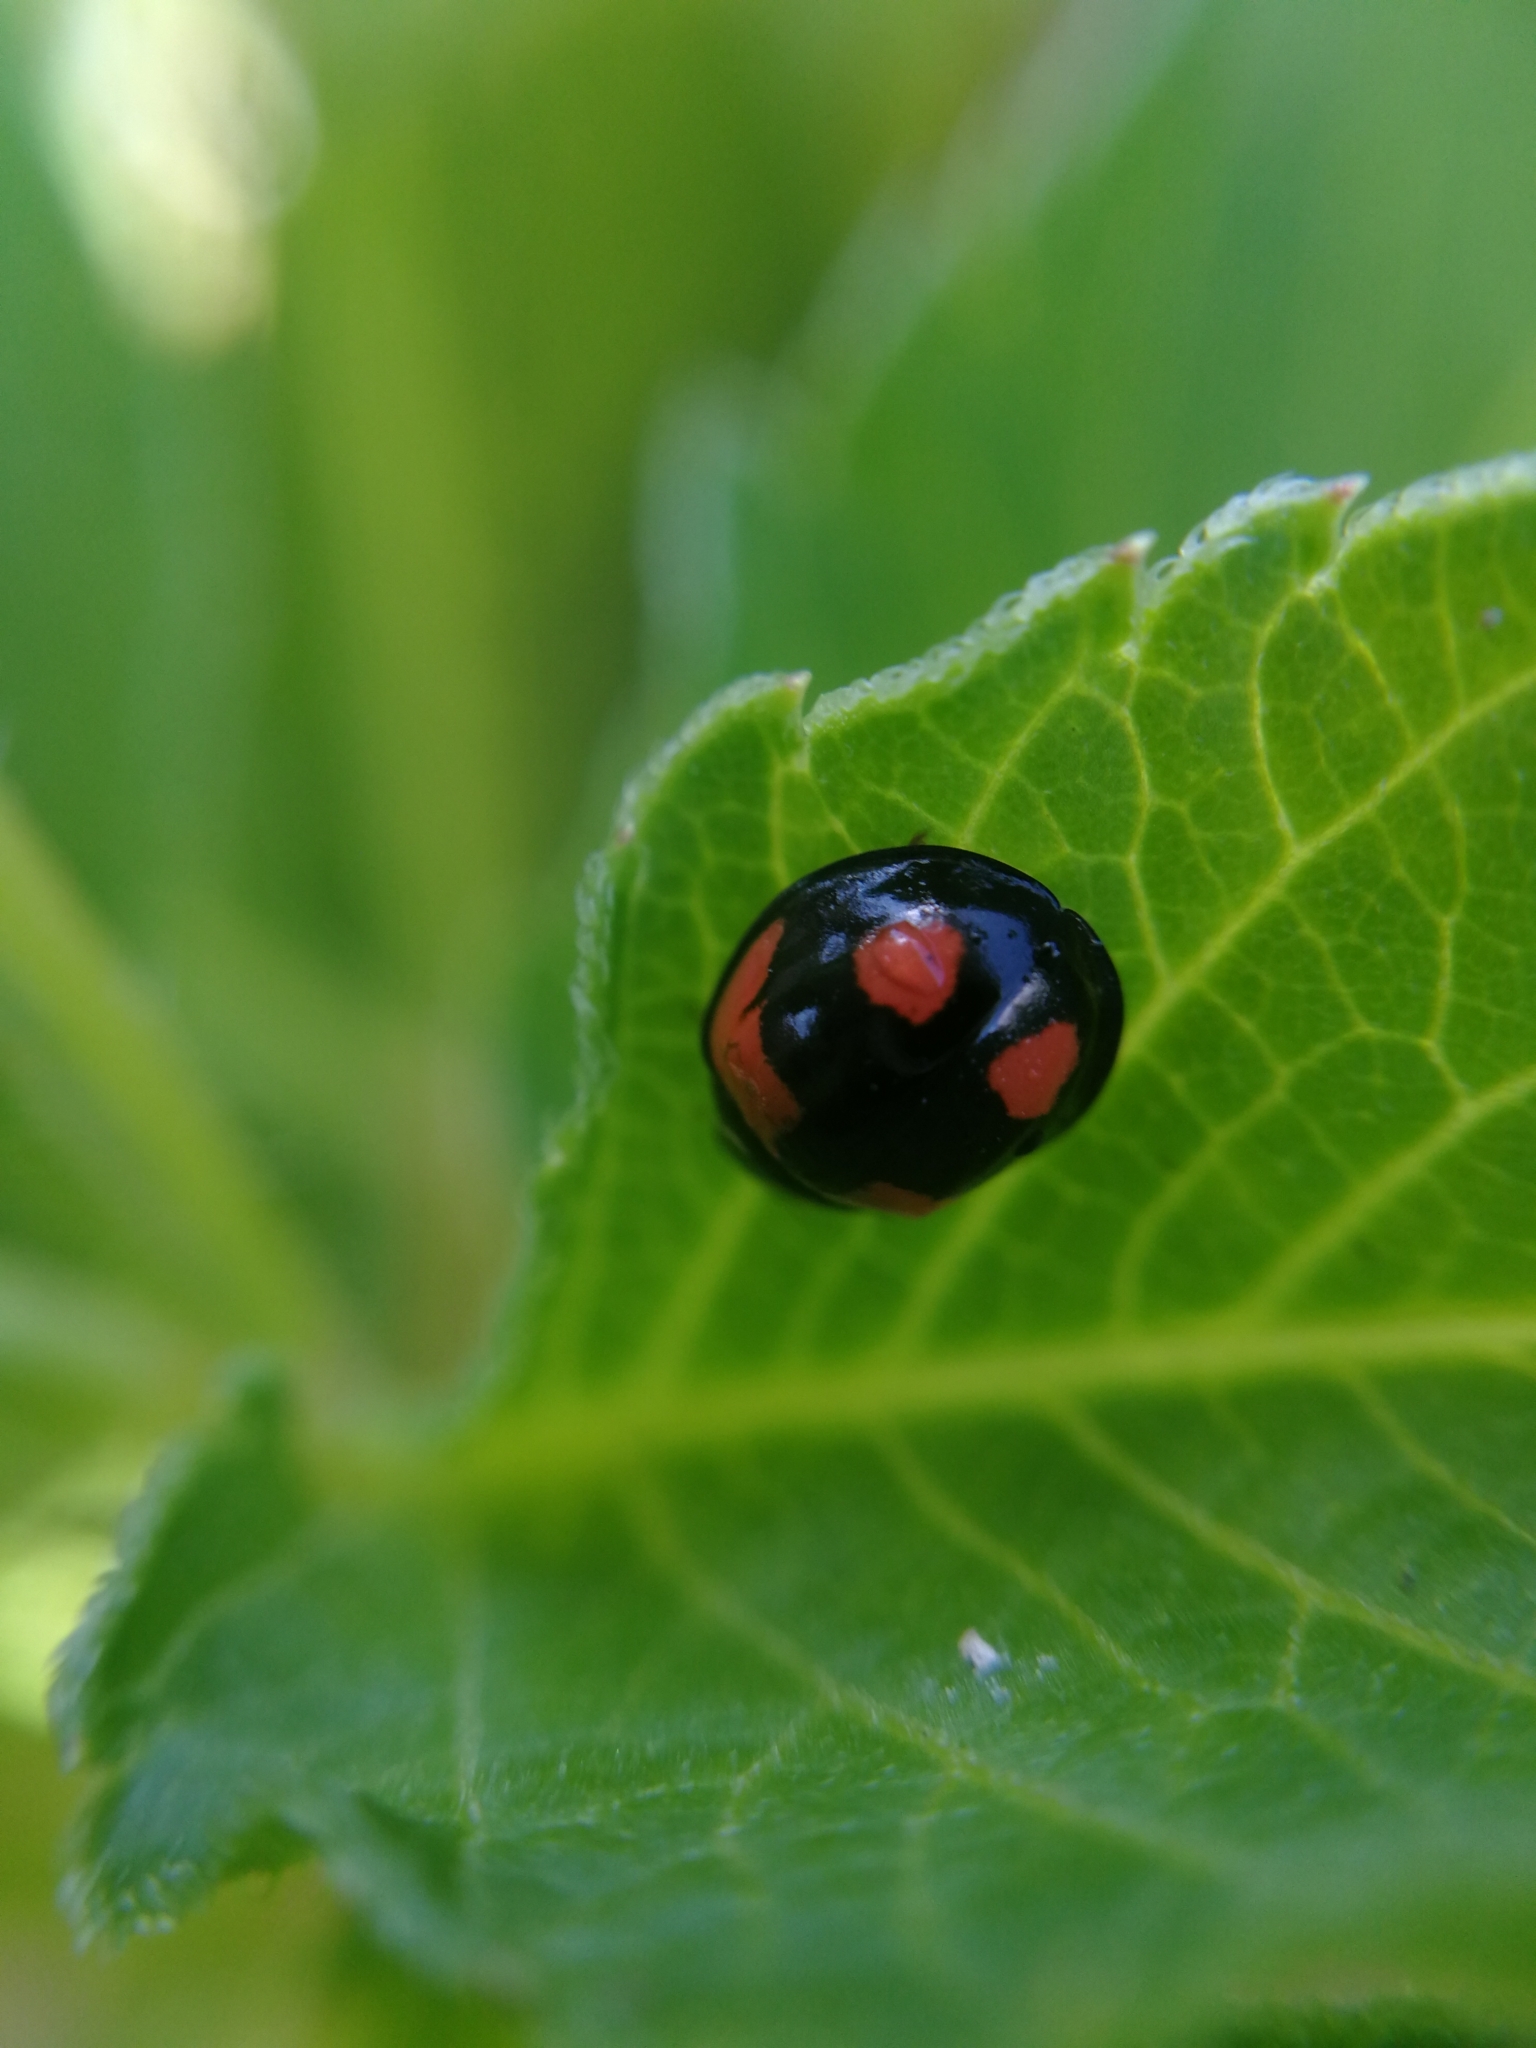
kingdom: Animalia
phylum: Arthropoda
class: Insecta
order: Coleoptera
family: Coccinellidae
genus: Cheilomenes
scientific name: Cheilomenes sexmaculata
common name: Ladybird beetle
